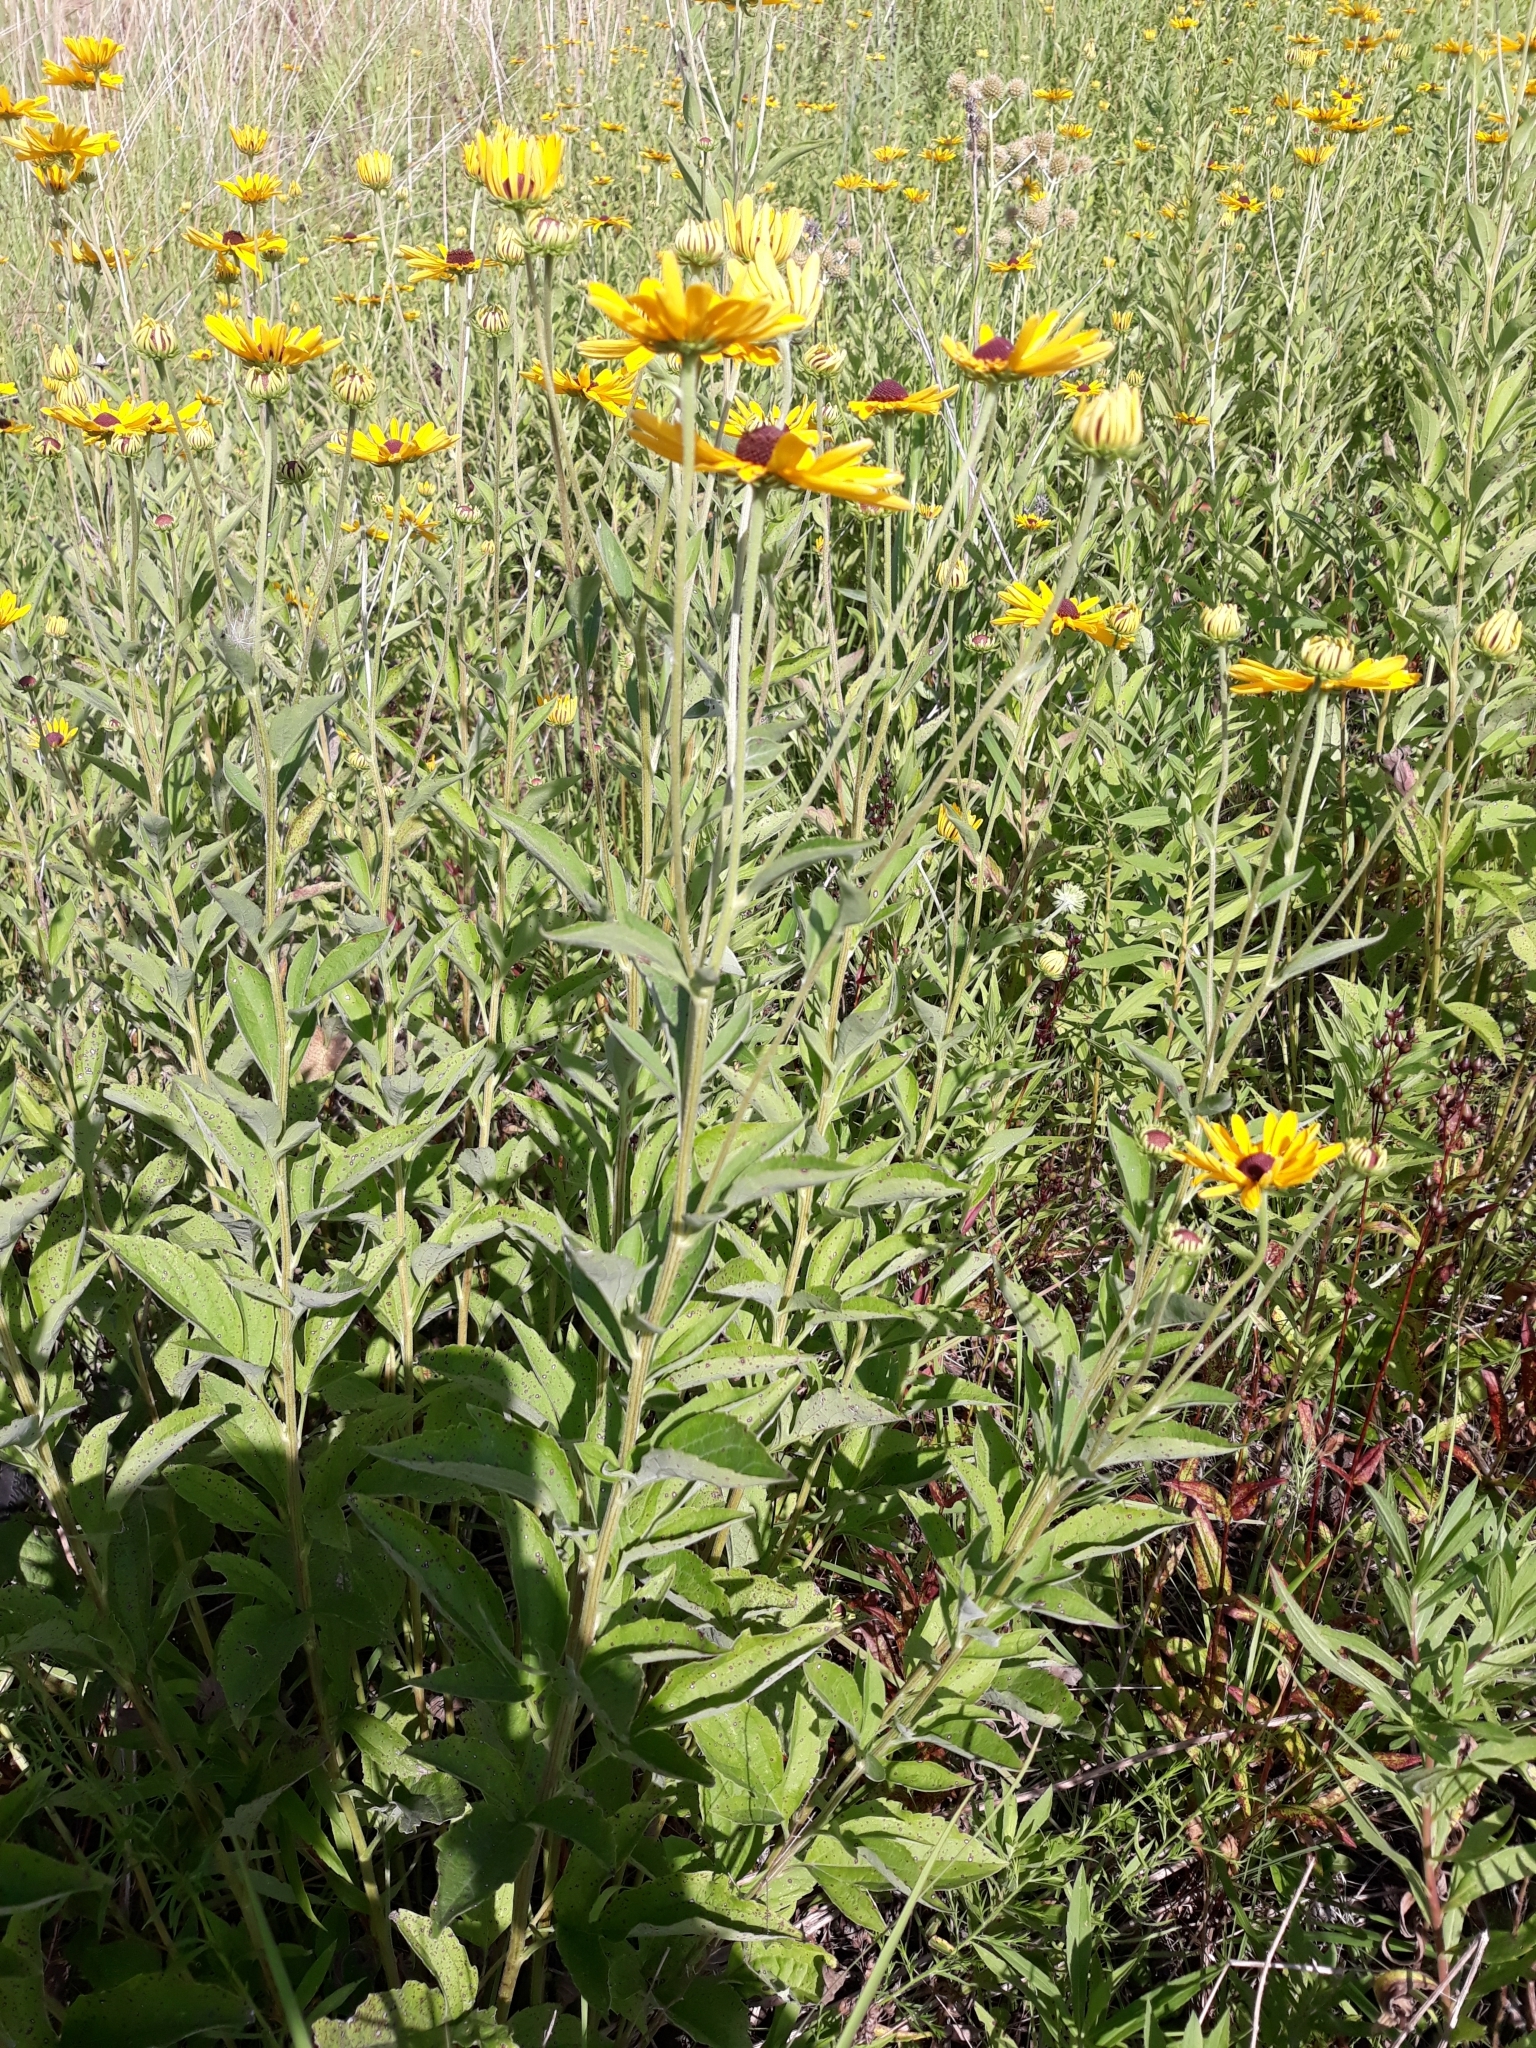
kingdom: Plantae
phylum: Tracheophyta
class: Magnoliopsida
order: Asterales
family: Asteraceae
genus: Rudbeckia
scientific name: Rudbeckia subtomentosa
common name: Sweet coneflower
